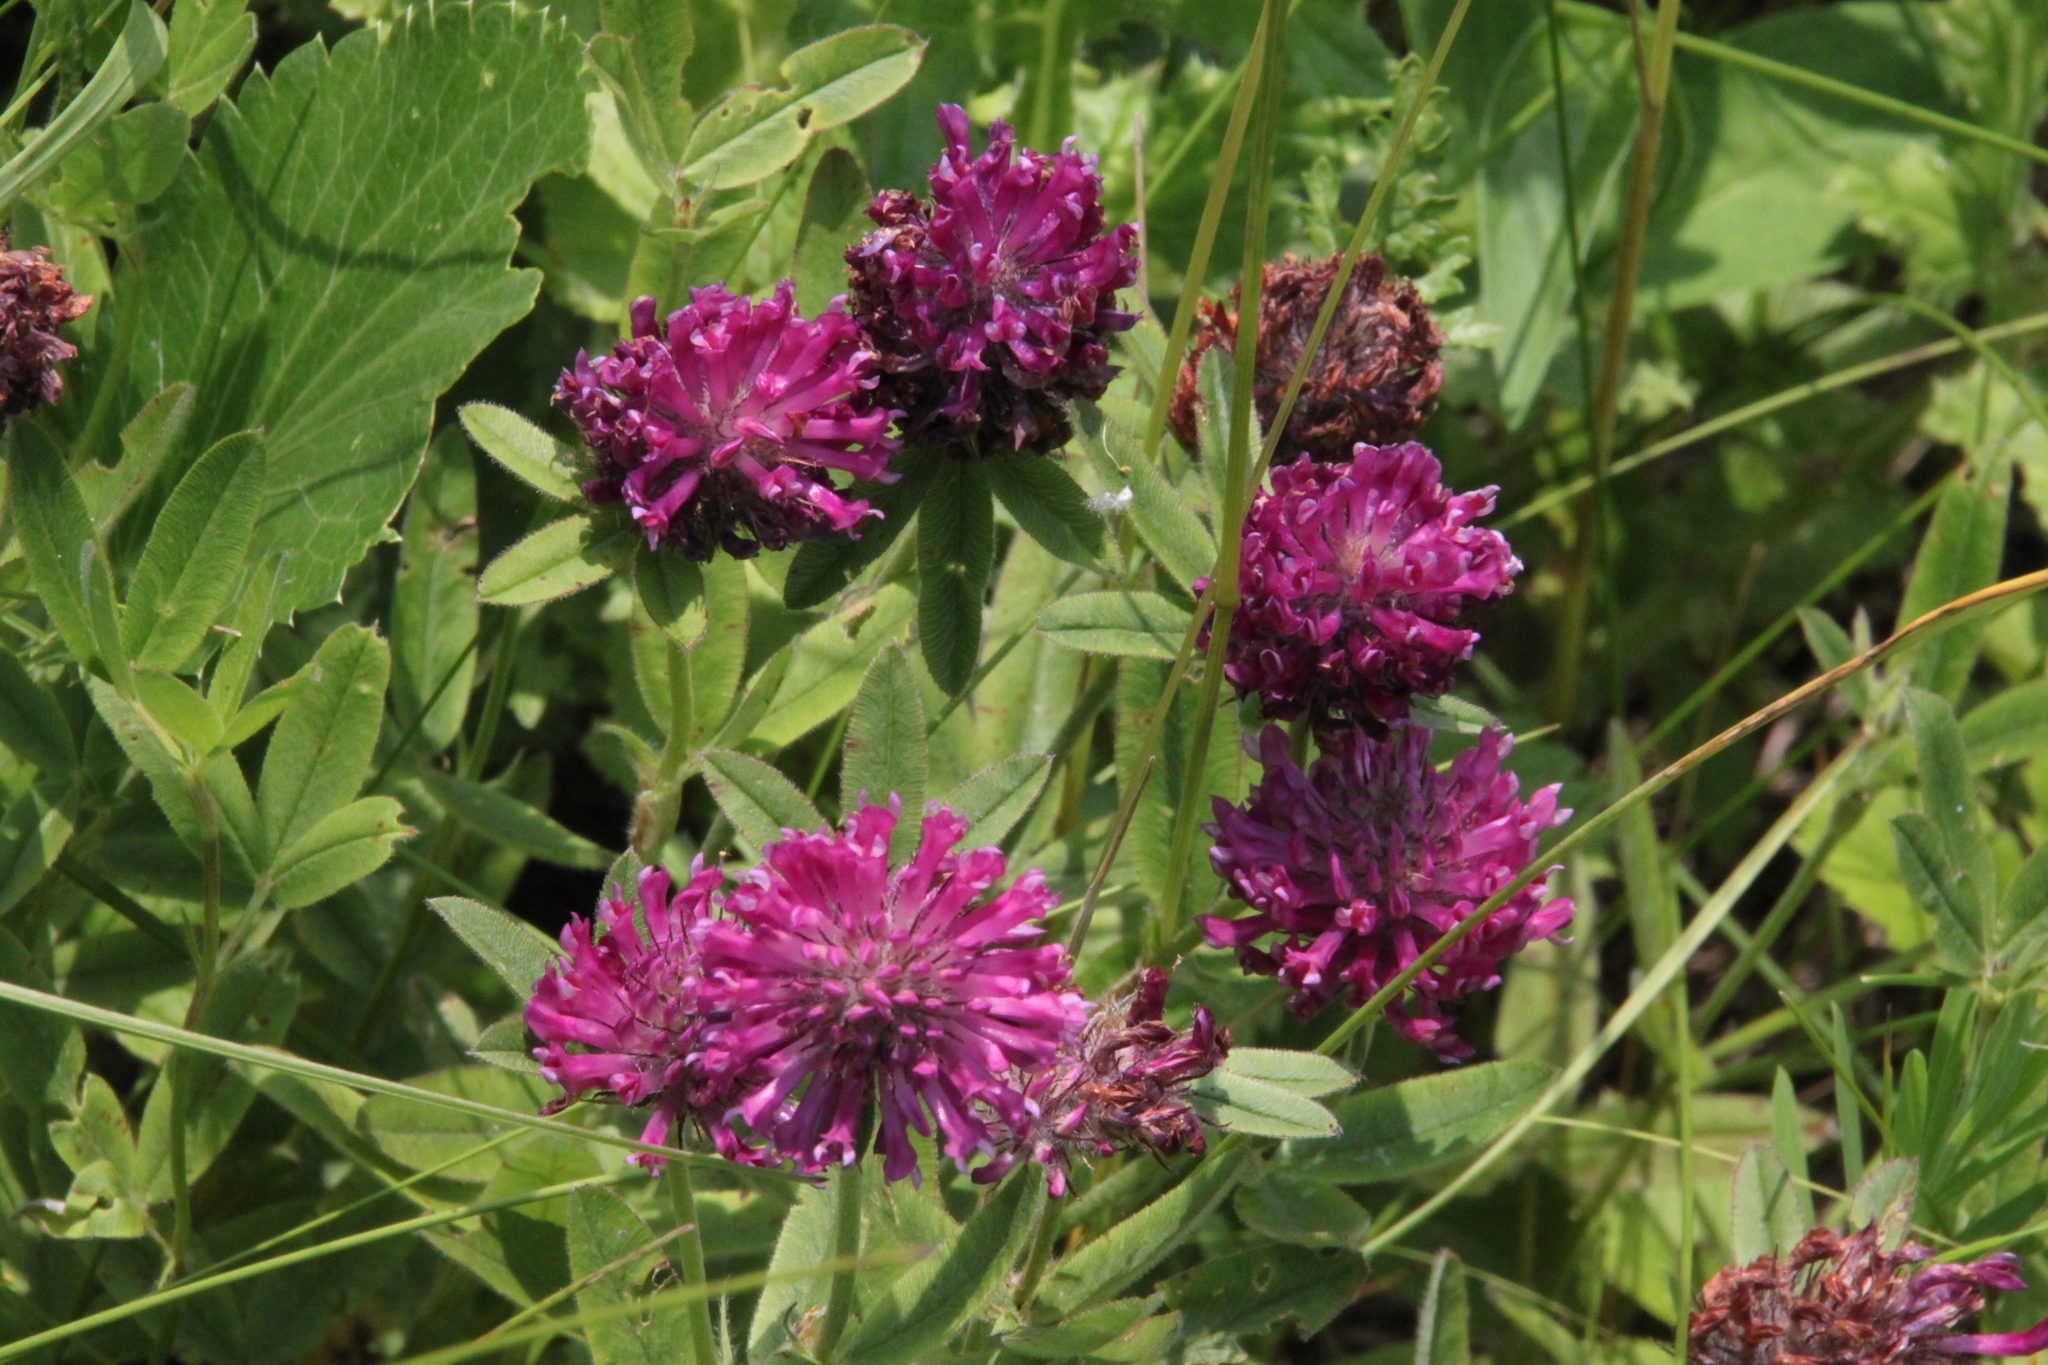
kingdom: Plantae
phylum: Tracheophyta
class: Magnoliopsida
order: Fabales
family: Fabaceae
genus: Trifolium
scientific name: Trifolium alpestre
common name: Owl-head clover
